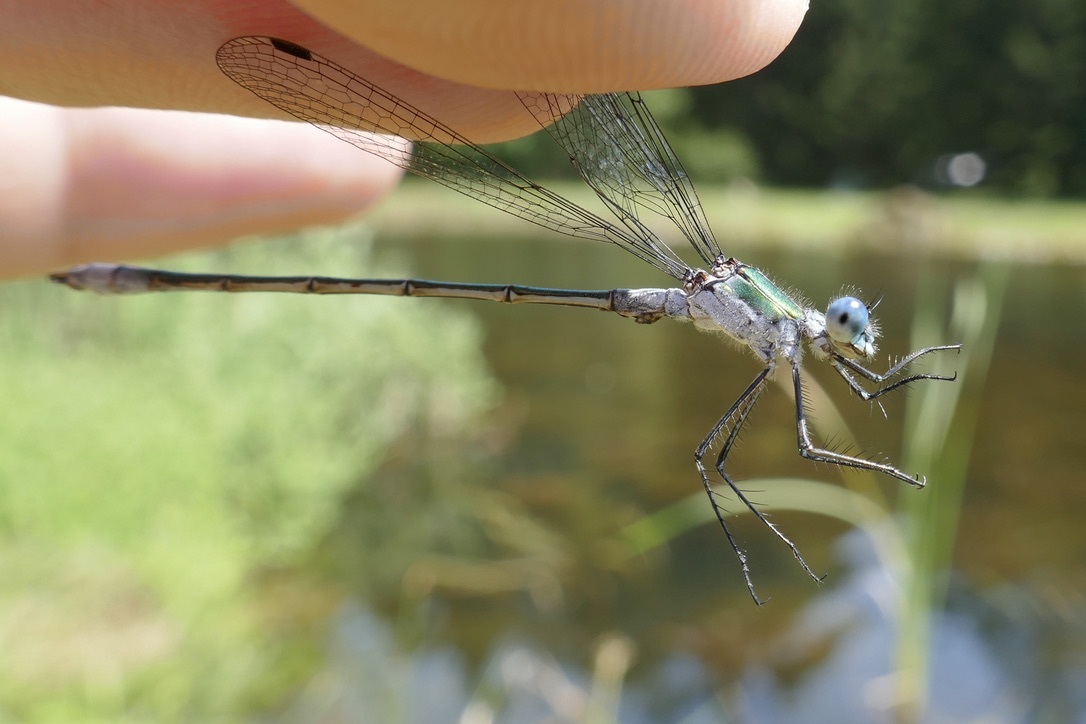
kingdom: Animalia
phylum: Arthropoda
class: Insecta
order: Odonata
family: Lestidae
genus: Lestes
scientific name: Lestes sponsa
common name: Common spreadwing
